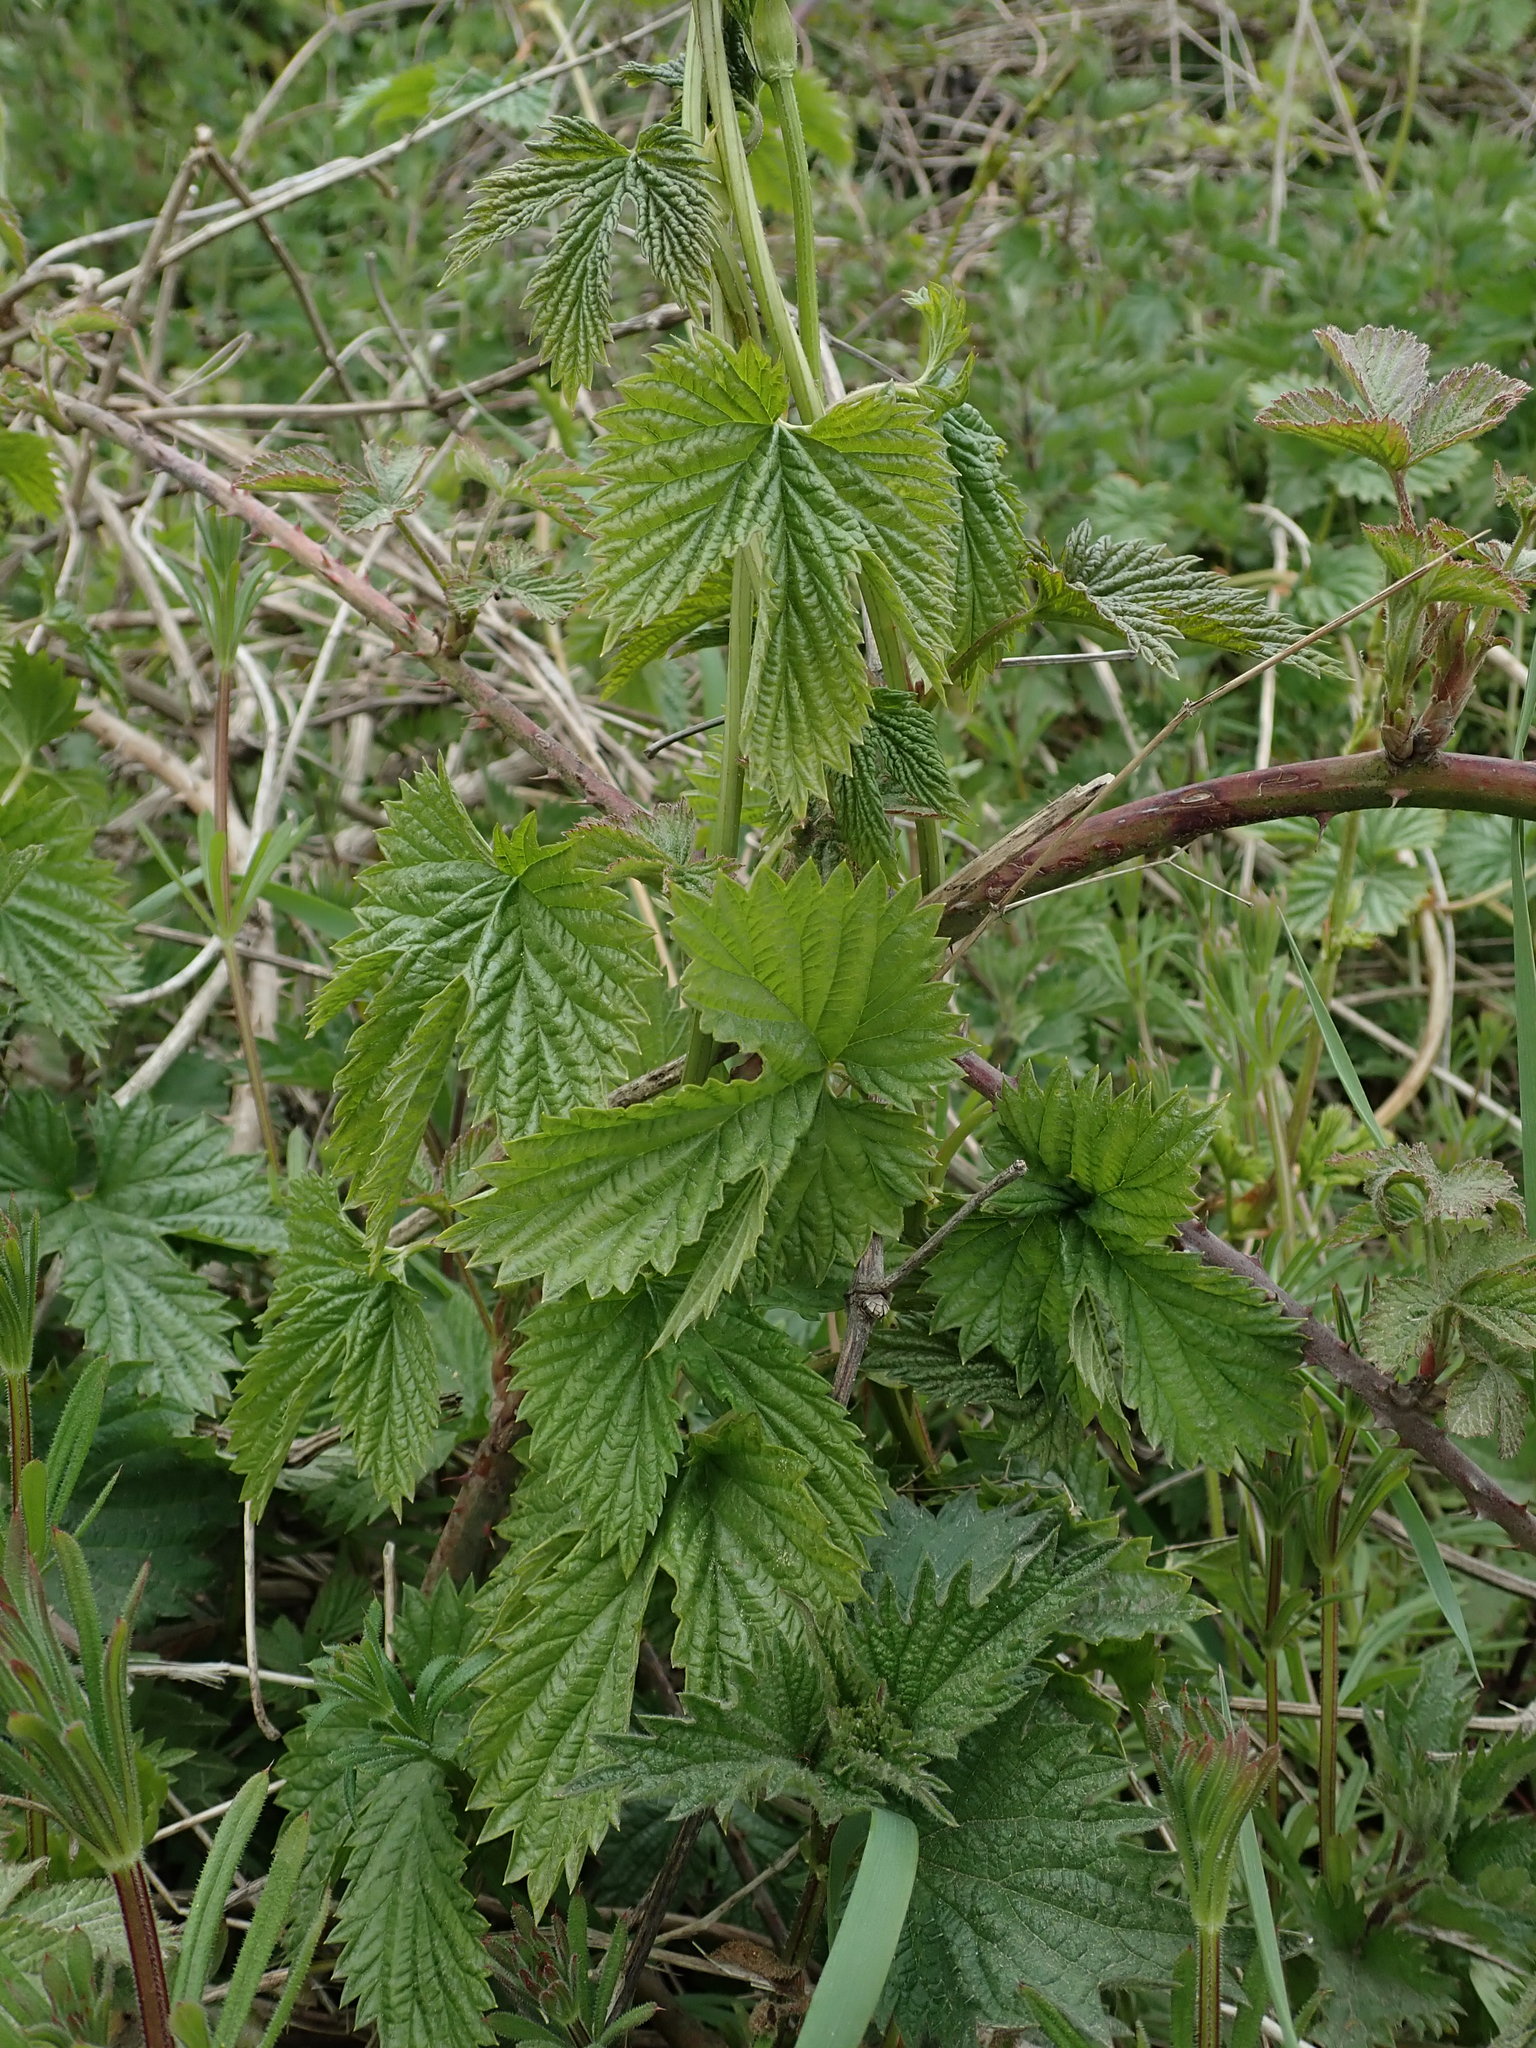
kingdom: Plantae
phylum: Tracheophyta
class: Magnoliopsida
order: Rosales
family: Cannabaceae
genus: Humulus
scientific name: Humulus lupulus
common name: Hop
